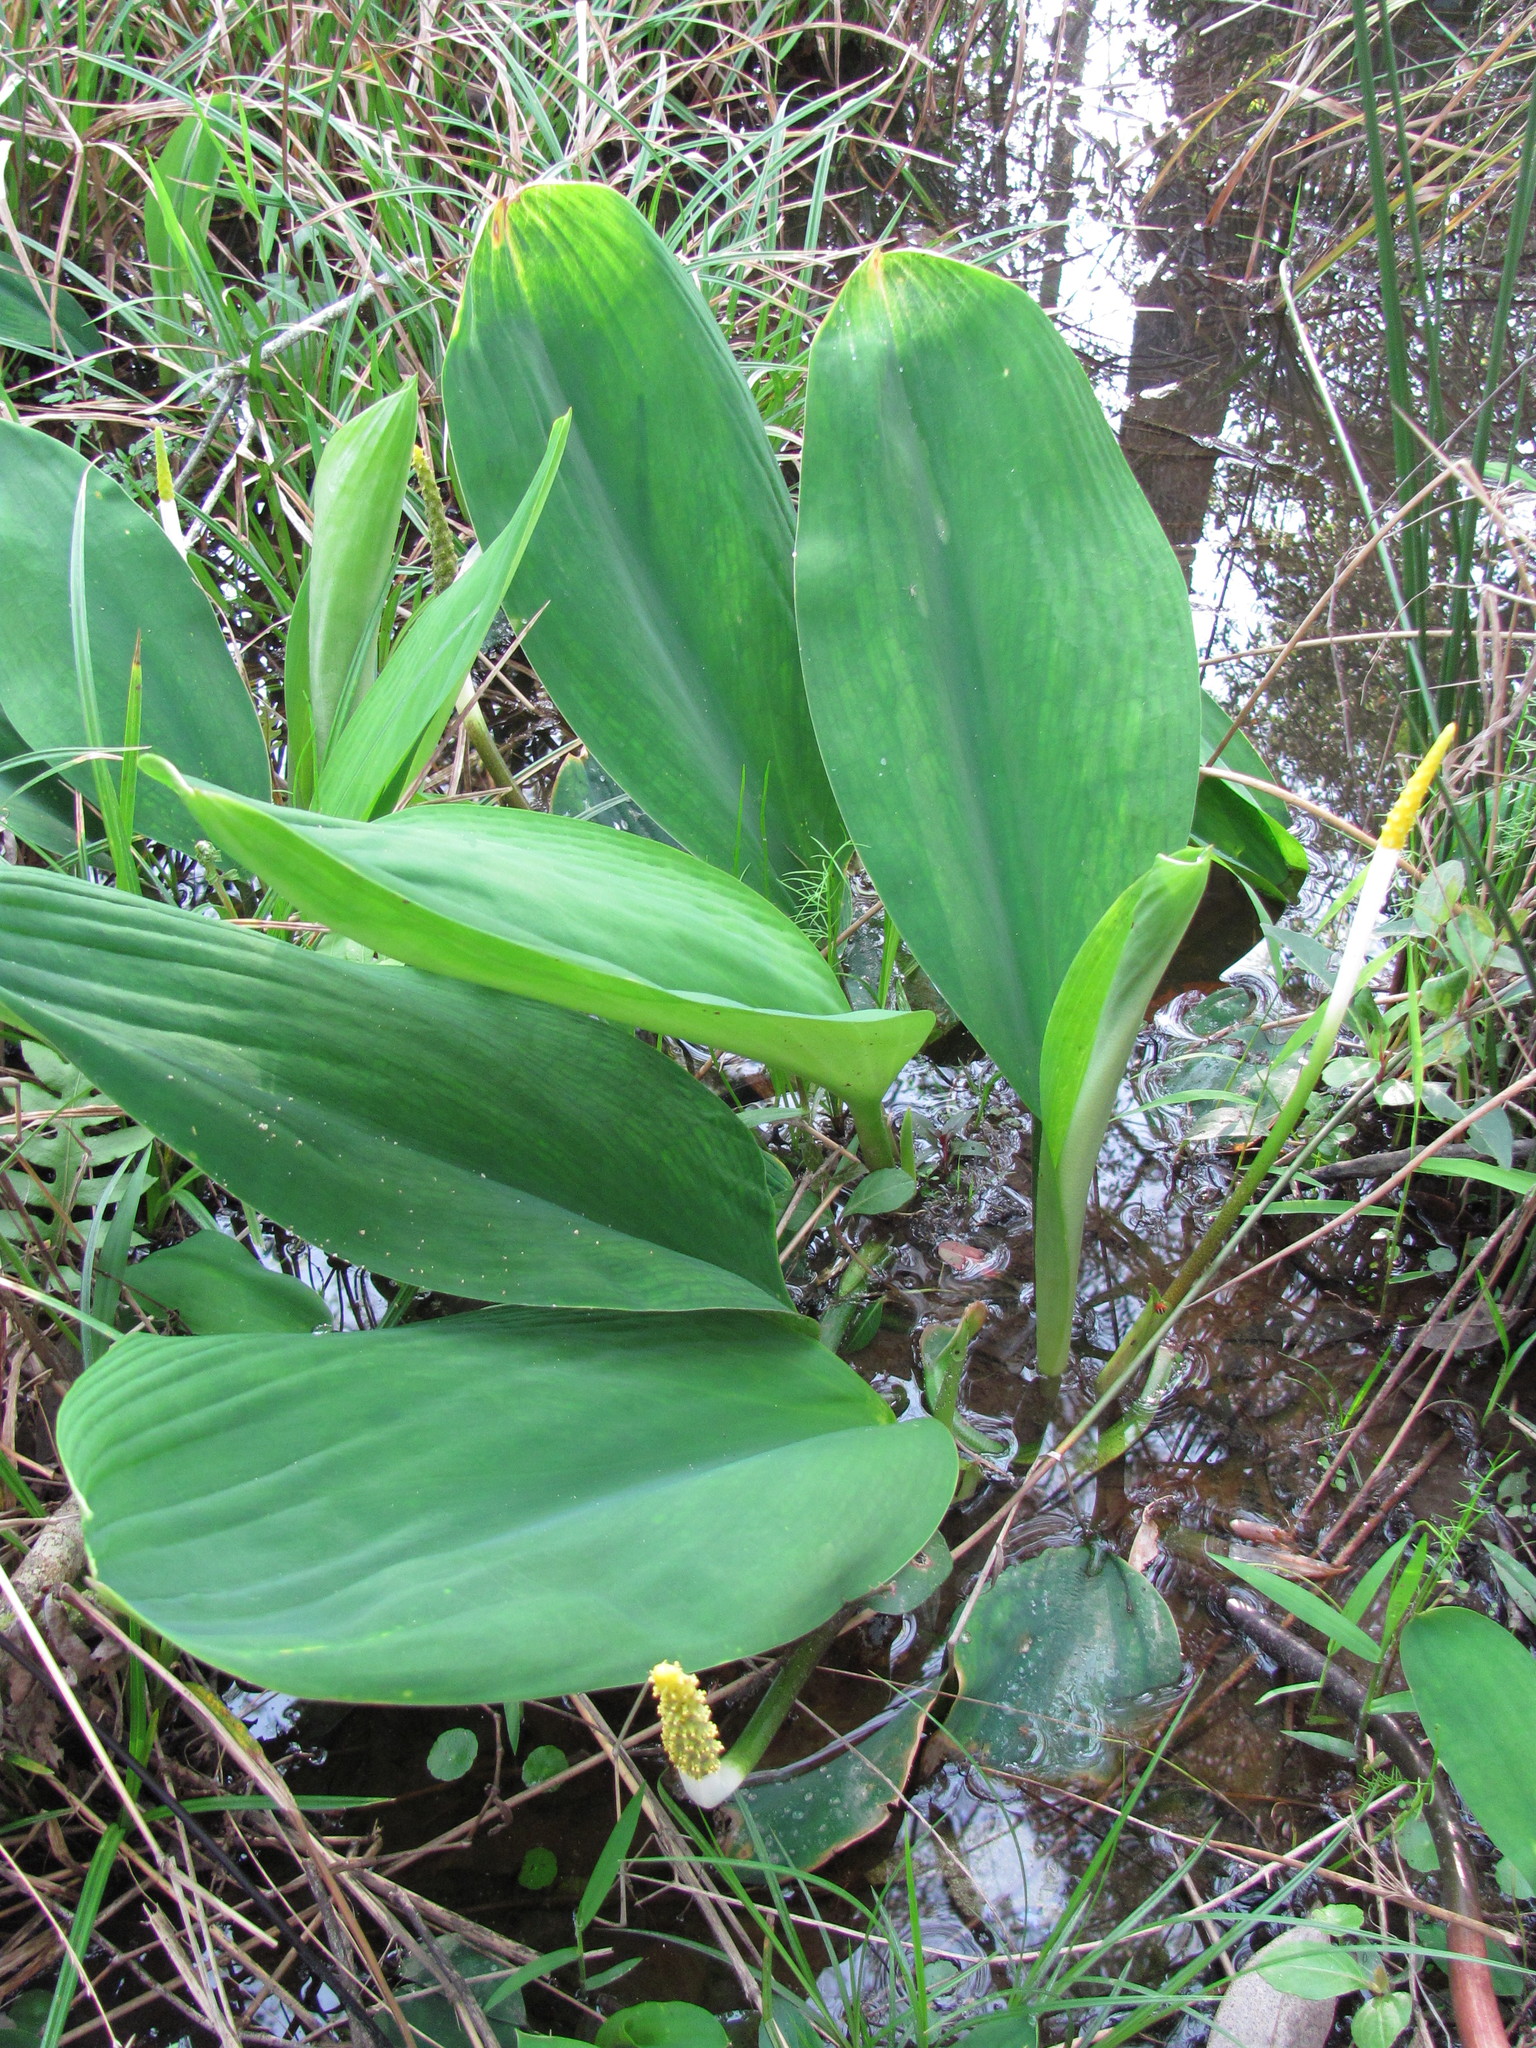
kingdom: Plantae
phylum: Tracheophyta
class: Liliopsida
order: Alismatales
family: Araceae
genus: Orontium
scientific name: Orontium aquaticum
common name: Golden-club
